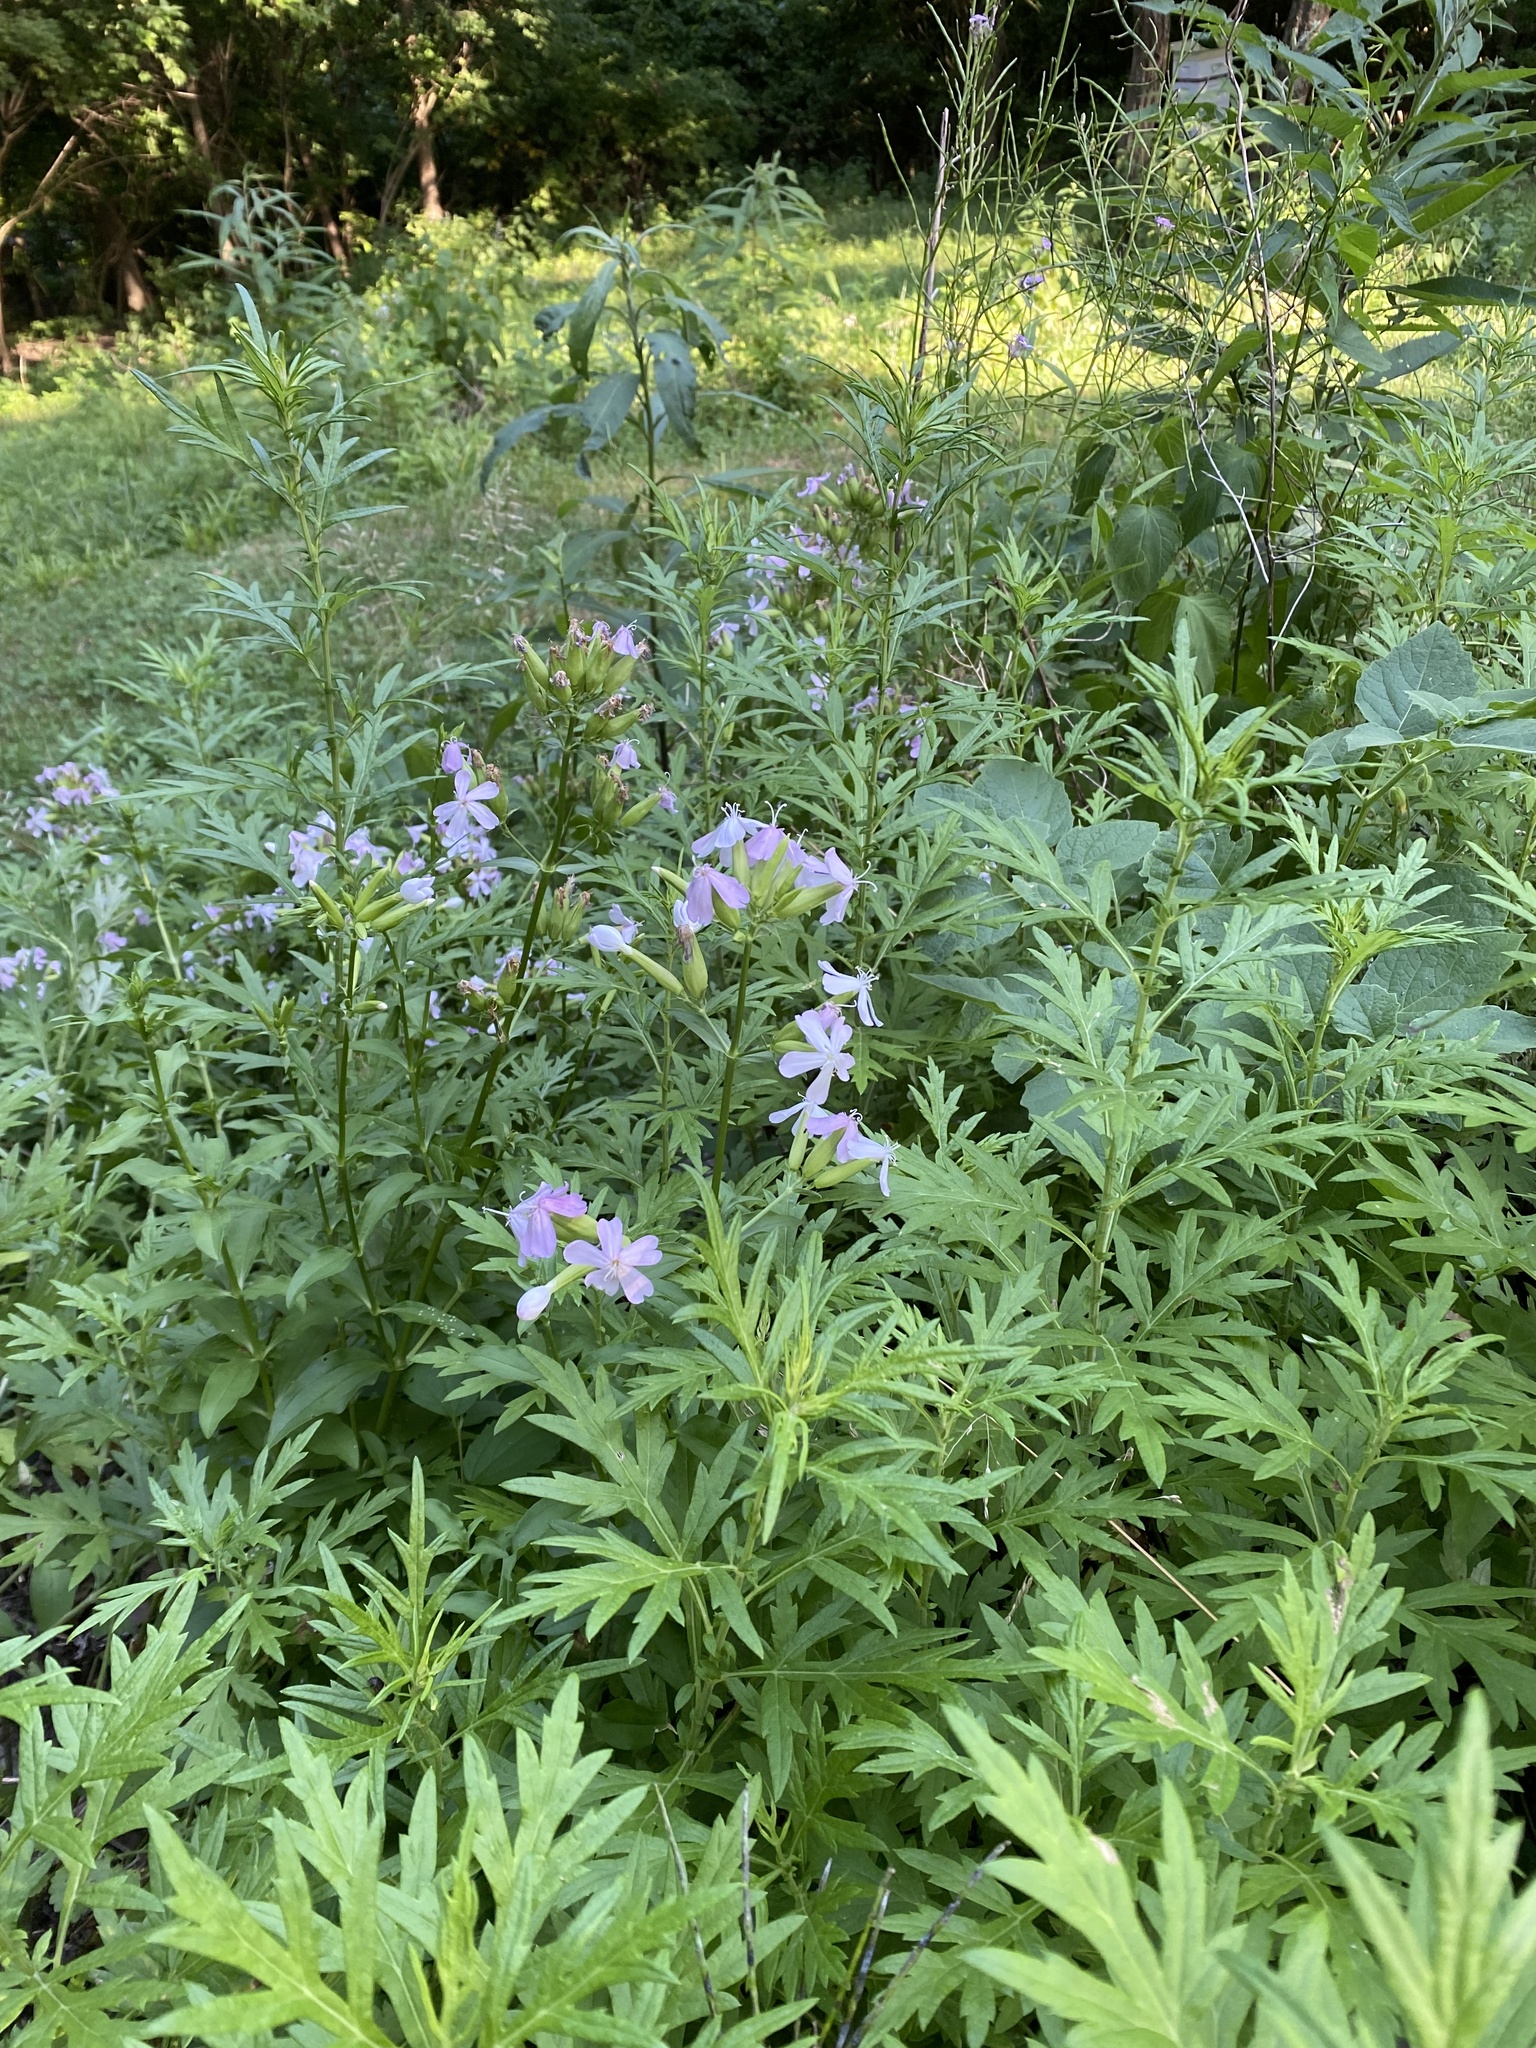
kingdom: Plantae
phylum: Tracheophyta
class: Magnoliopsida
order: Caryophyllales
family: Caryophyllaceae
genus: Saponaria
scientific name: Saponaria officinalis
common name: Soapwort
